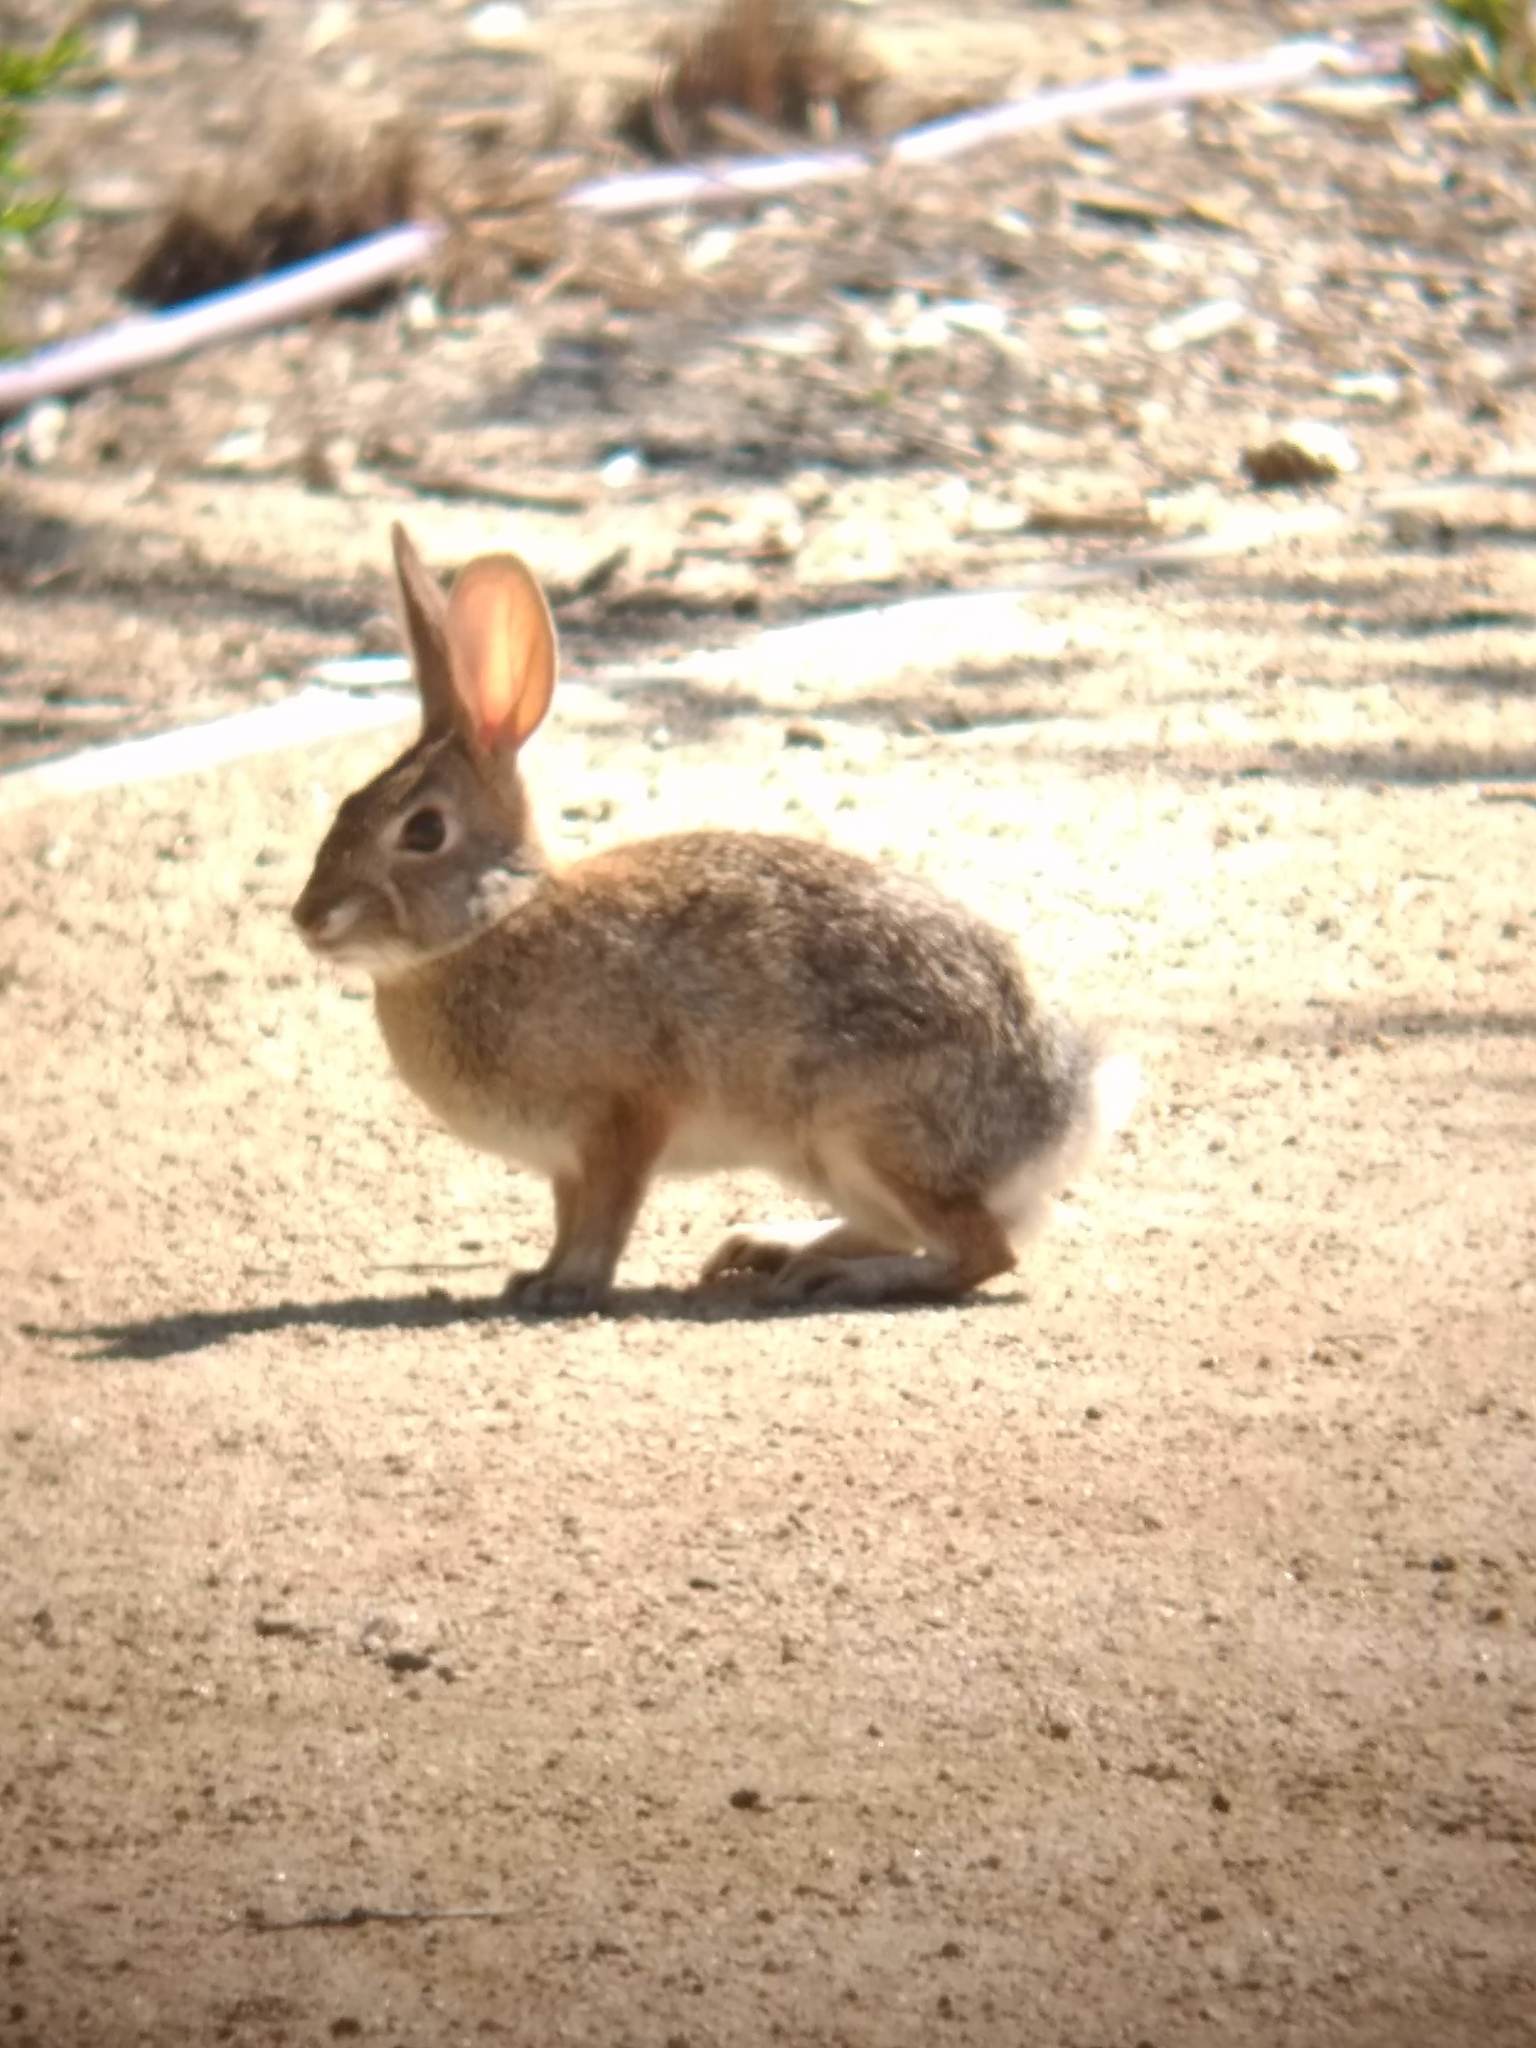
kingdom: Animalia
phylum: Chordata
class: Mammalia
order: Lagomorpha
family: Leporidae
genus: Sylvilagus
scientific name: Sylvilagus audubonii
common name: Desert cottontail
